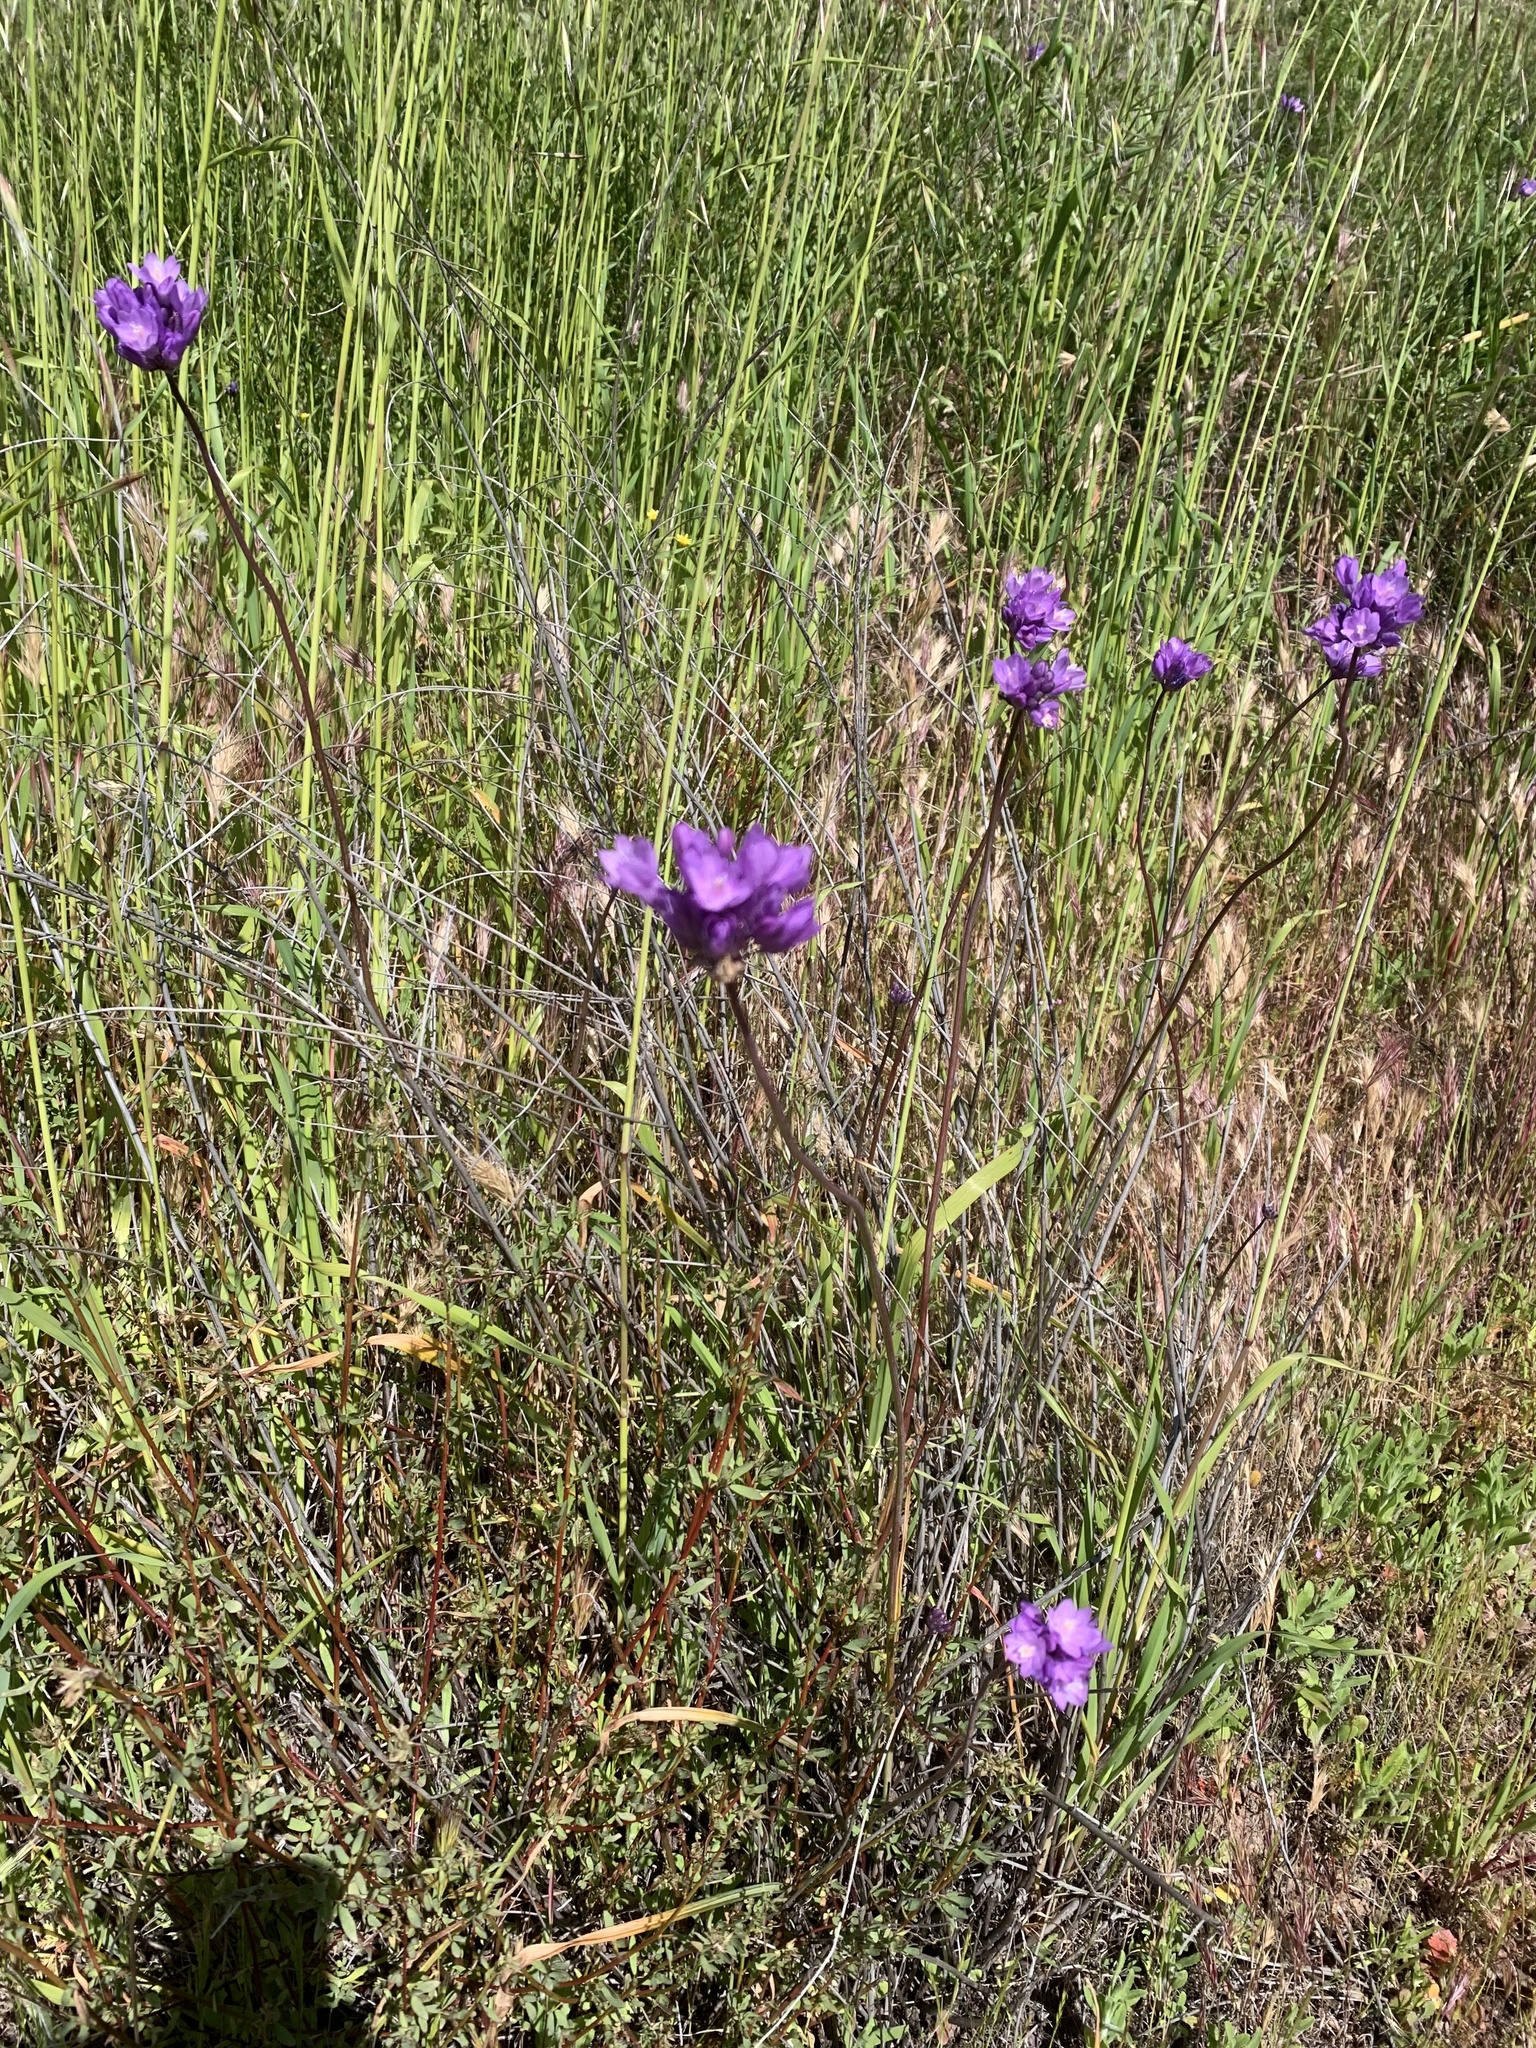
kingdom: Plantae
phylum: Tracheophyta
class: Liliopsida
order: Asparagales
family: Asparagaceae
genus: Dipterostemon
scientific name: Dipterostemon capitatus
